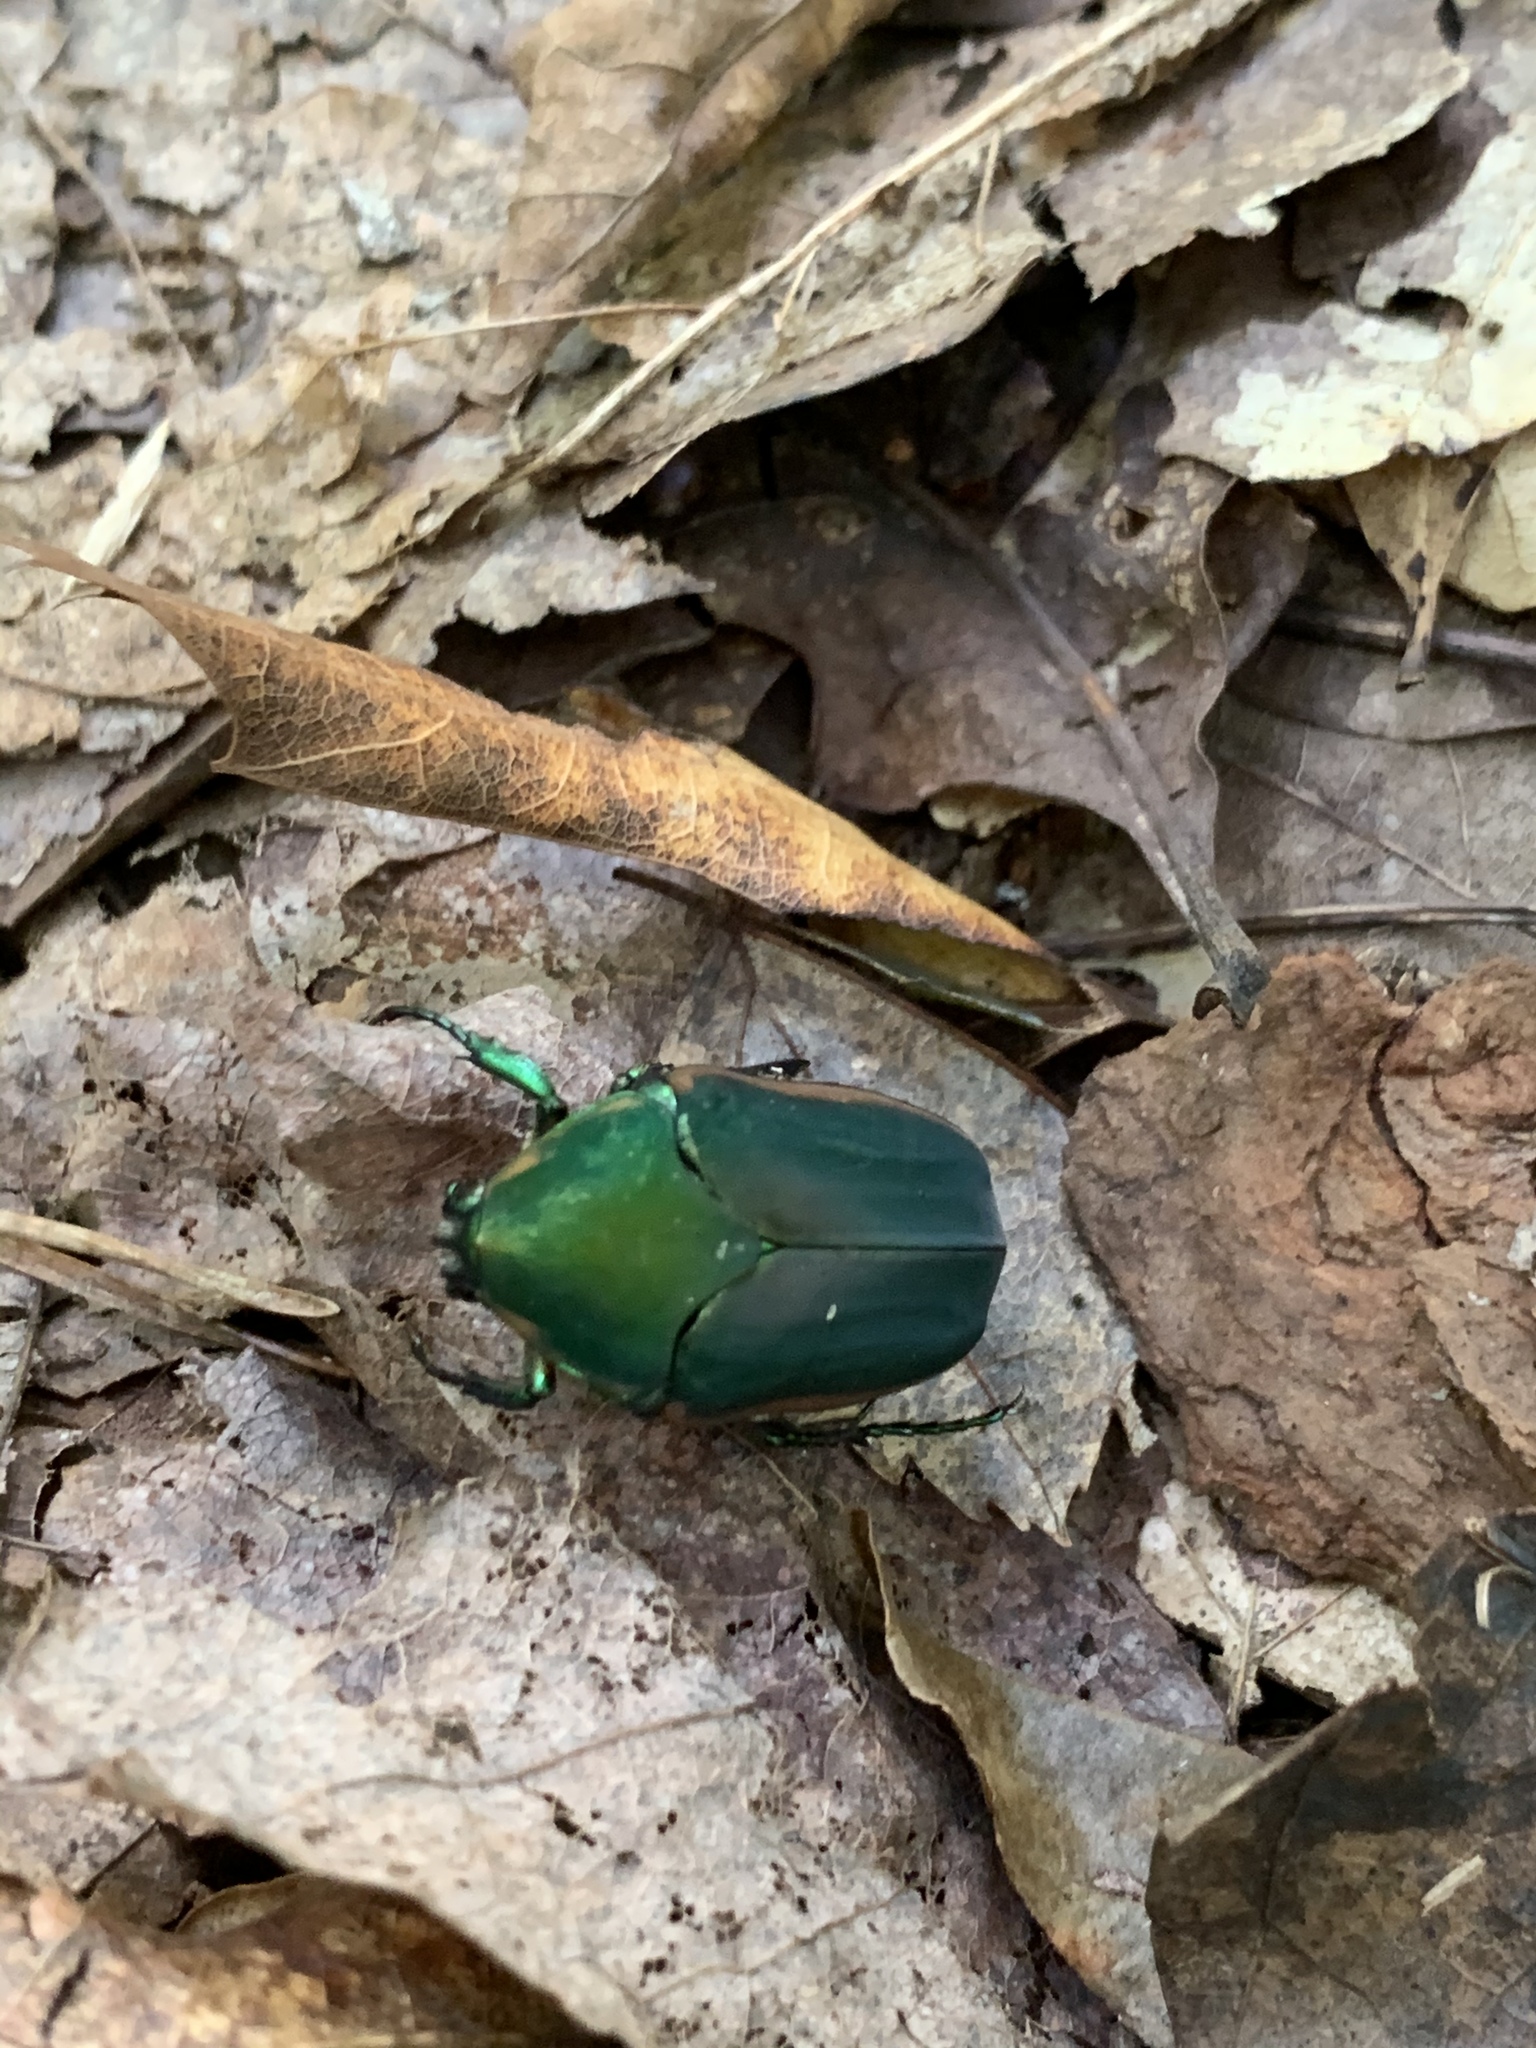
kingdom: Animalia
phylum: Arthropoda
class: Insecta
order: Coleoptera
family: Scarabaeidae
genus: Cotinis
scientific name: Cotinis nitida
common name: Common green june beetle
